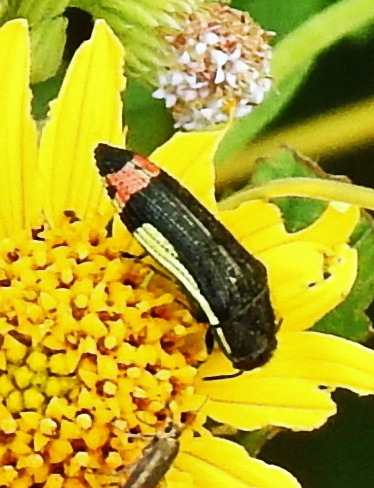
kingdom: Animalia
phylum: Arthropoda
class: Insecta
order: Coleoptera
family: Buprestidae
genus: Acmaeodera
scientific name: Acmaeodera flavomarginata
